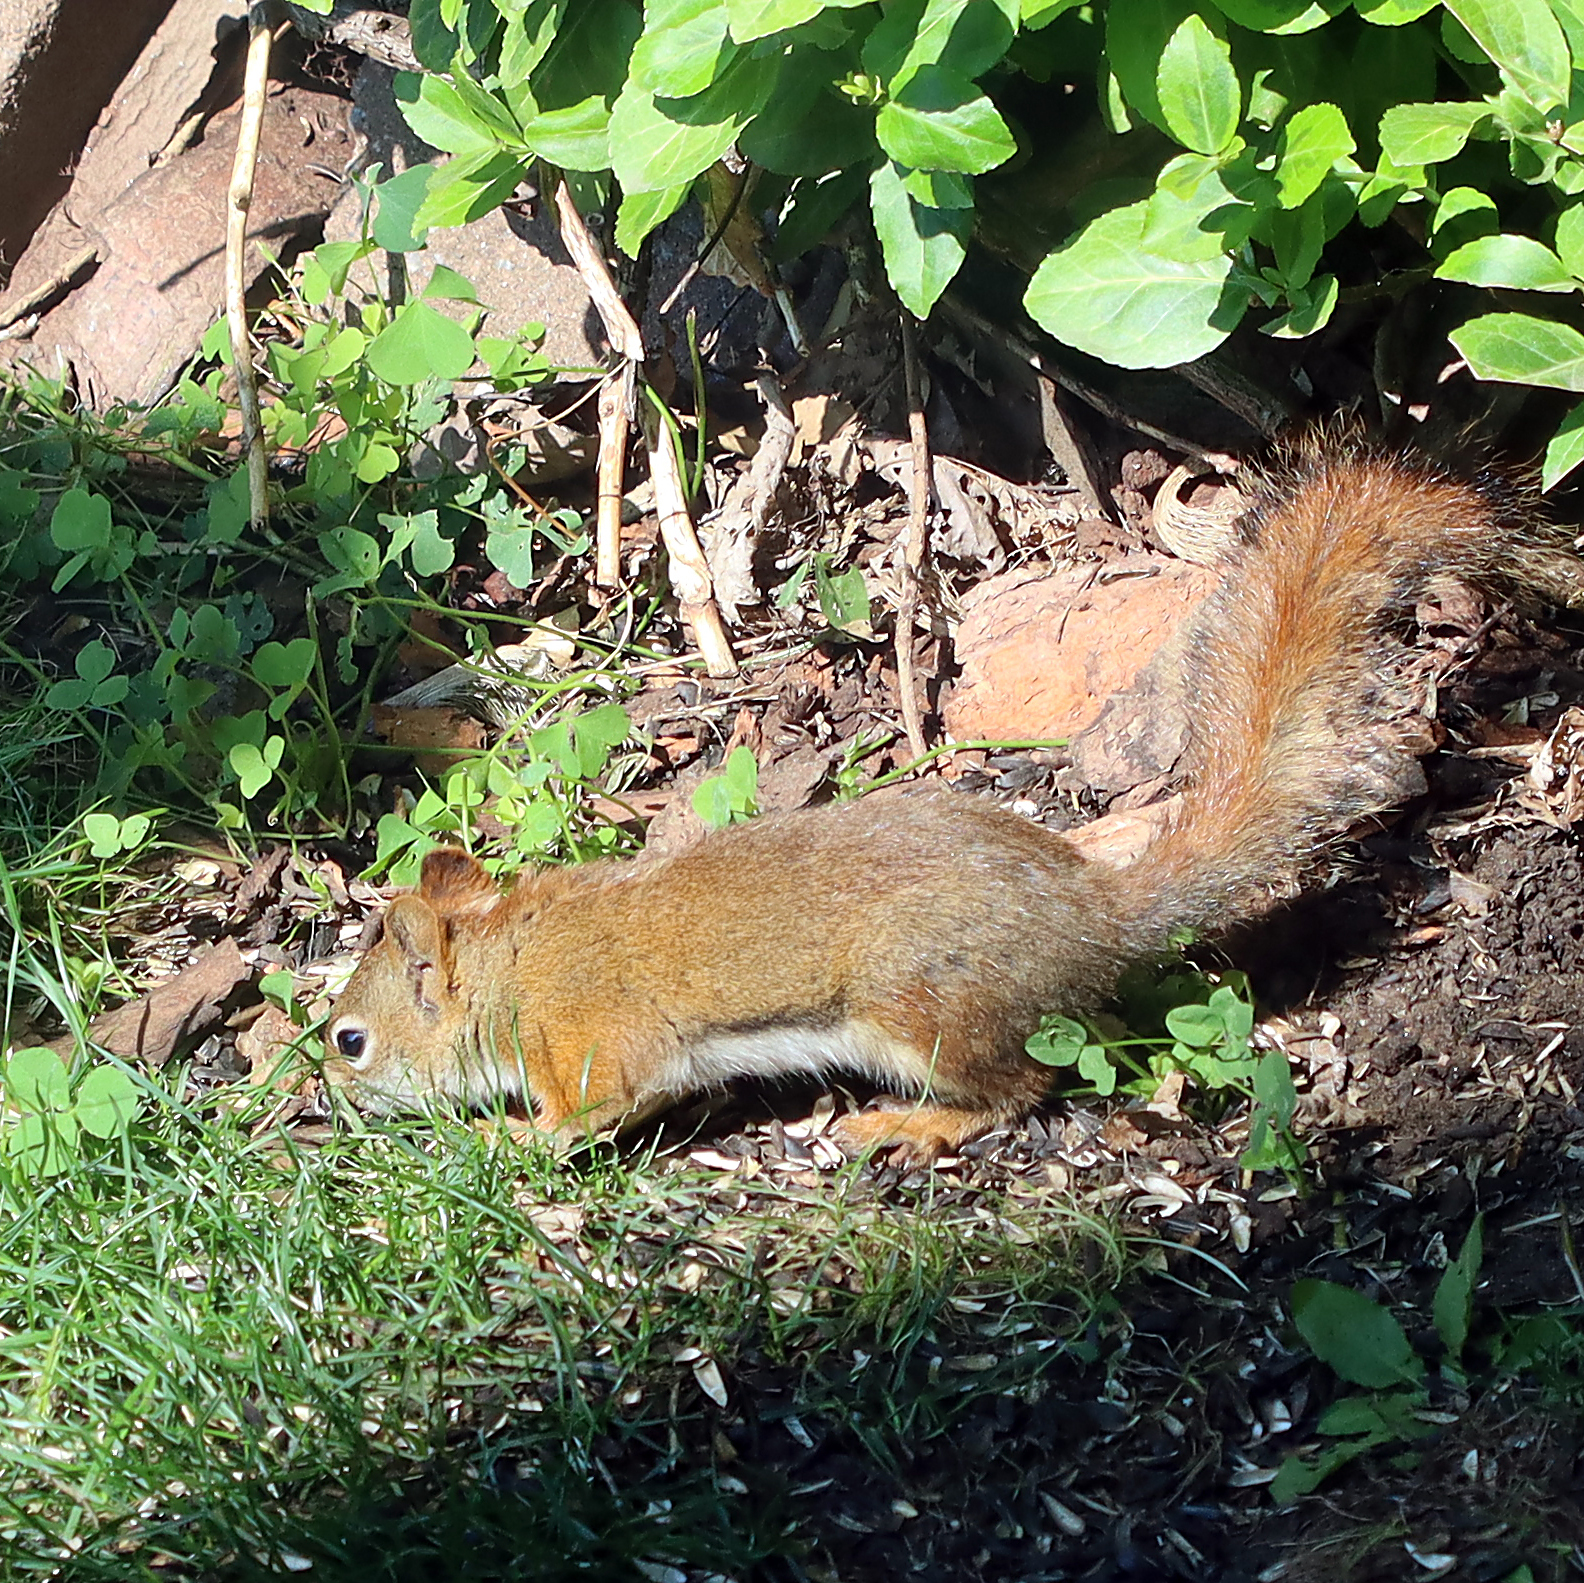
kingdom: Animalia
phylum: Chordata
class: Mammalia
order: Rodentia
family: Sciuridae
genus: Tamiasciurus
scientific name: Tamiasciurus hudsonicus
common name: Red squirrel
